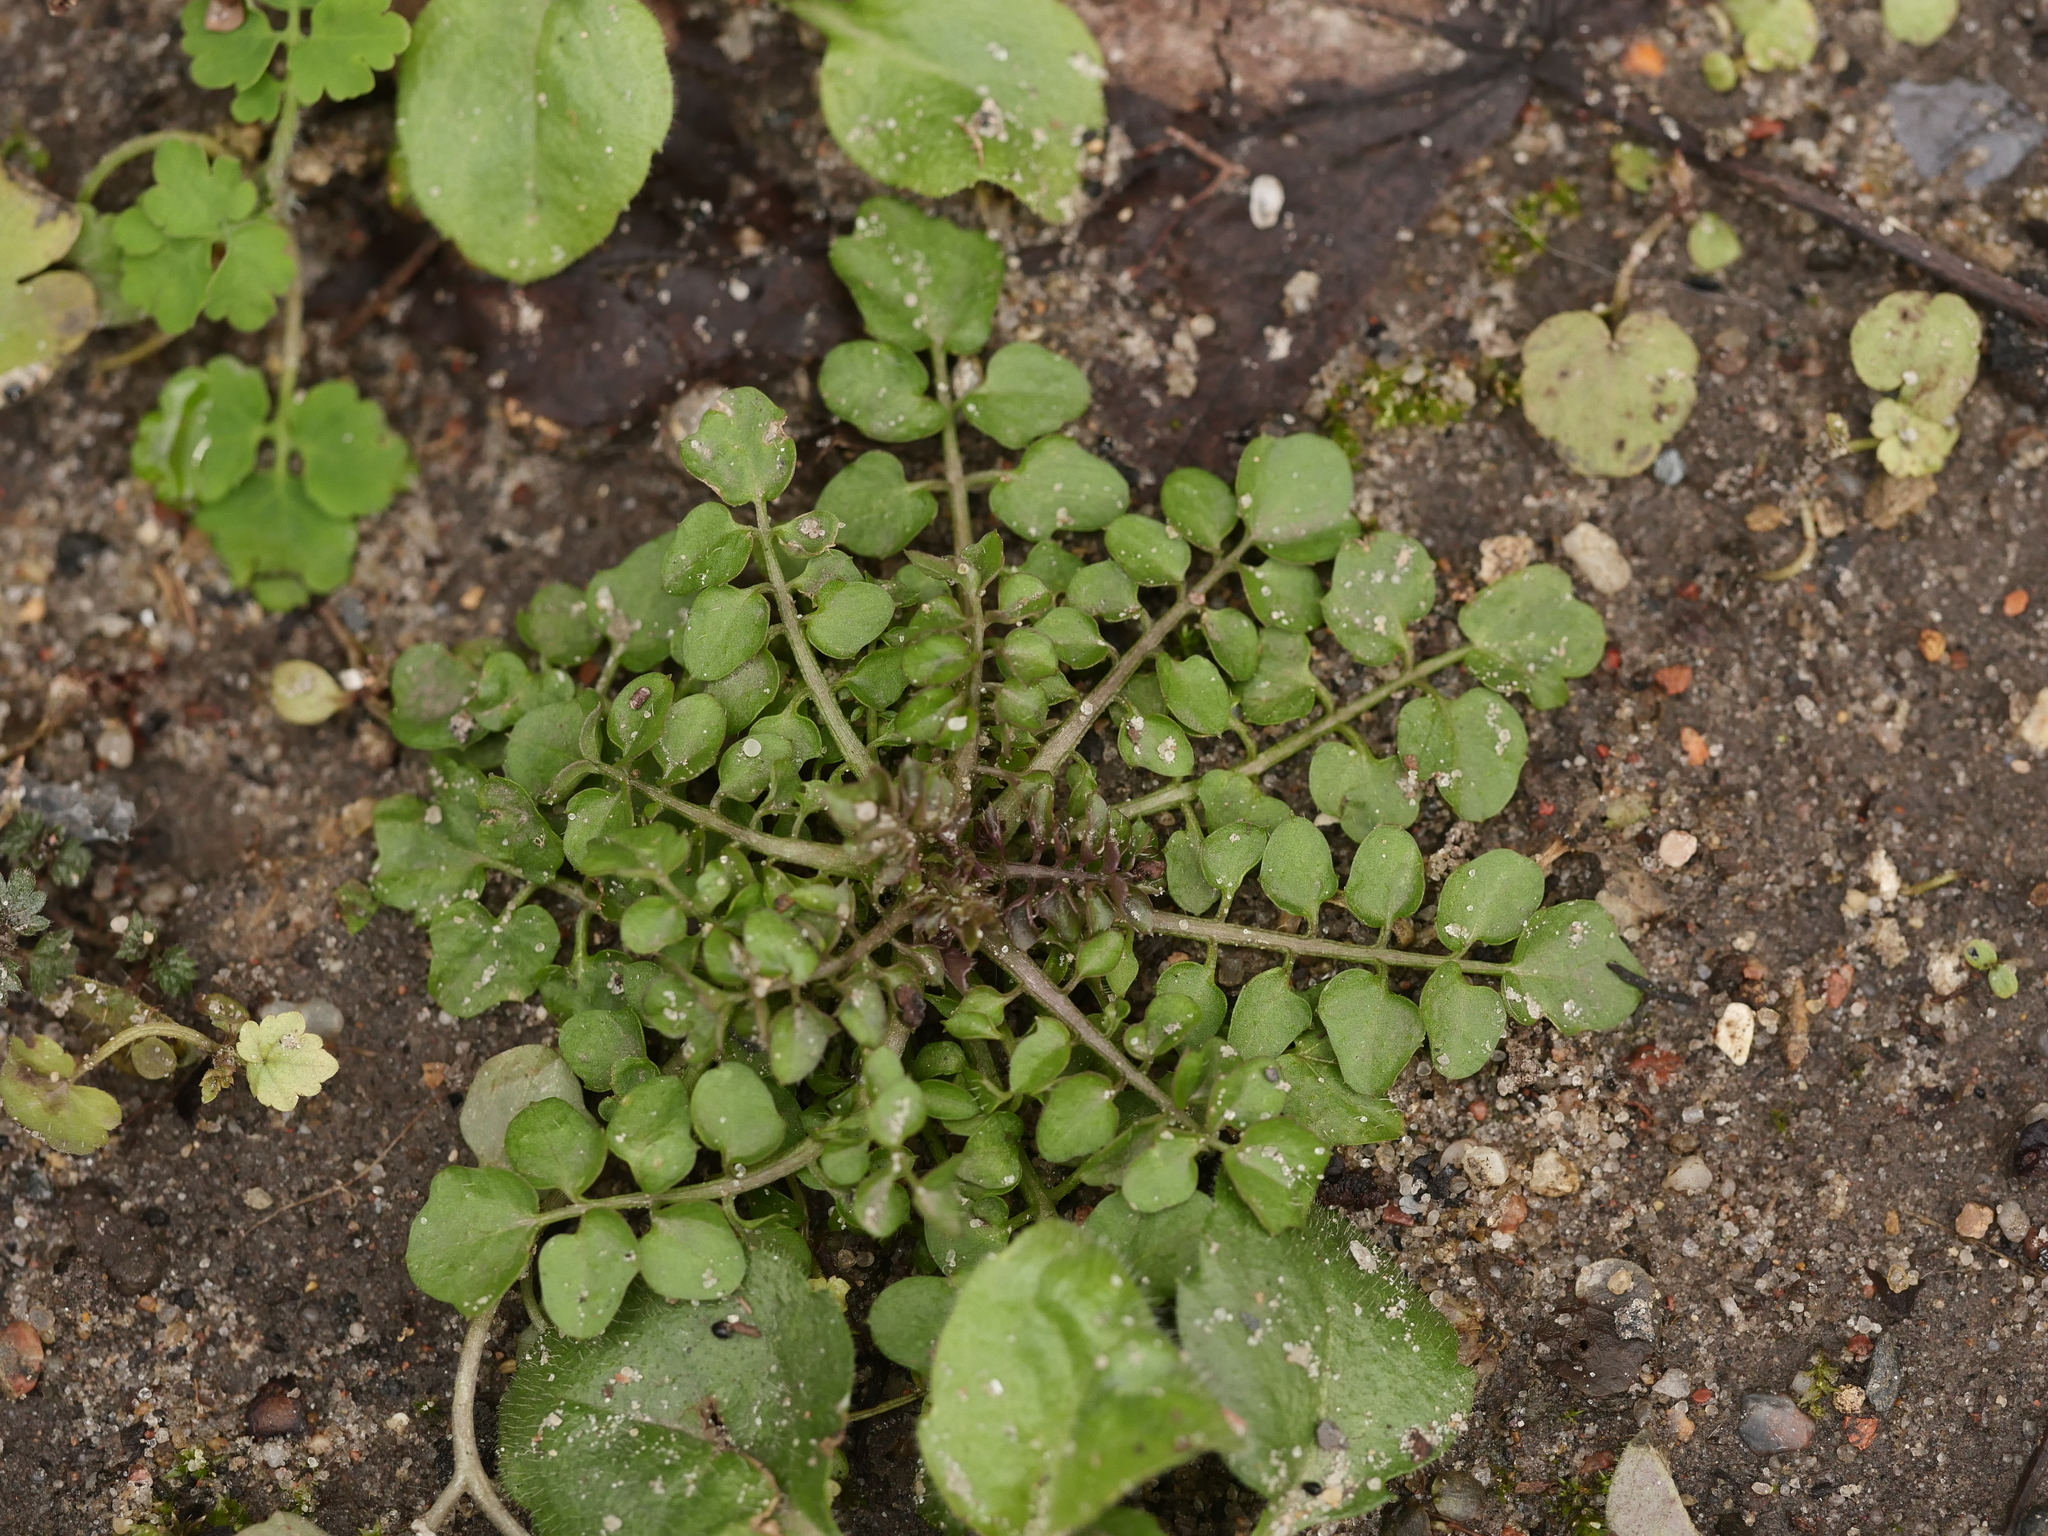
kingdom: Plantae
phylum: Tracheophyta
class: Magnoliopsida
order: Brassicales
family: Brassicaceae
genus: Cardamine
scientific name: Cardamine hirsuta
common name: Hairy bittercress
